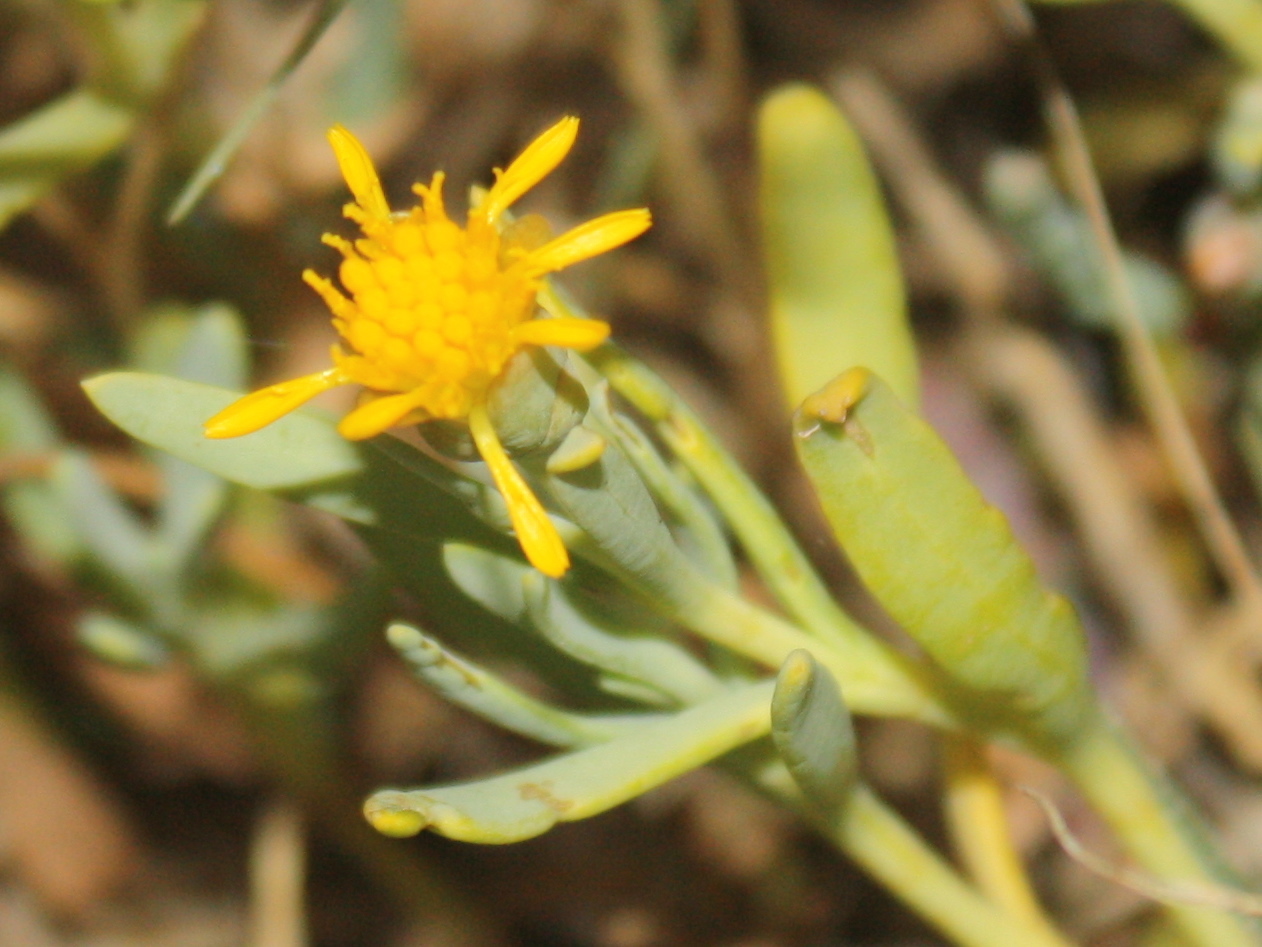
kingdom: Plantae
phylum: Tracheophyta
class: Magnoliopsida
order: Asterales
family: Asteraceae
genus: Jaumea
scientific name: Jaumea carnosa
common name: Fleshy jaumea
